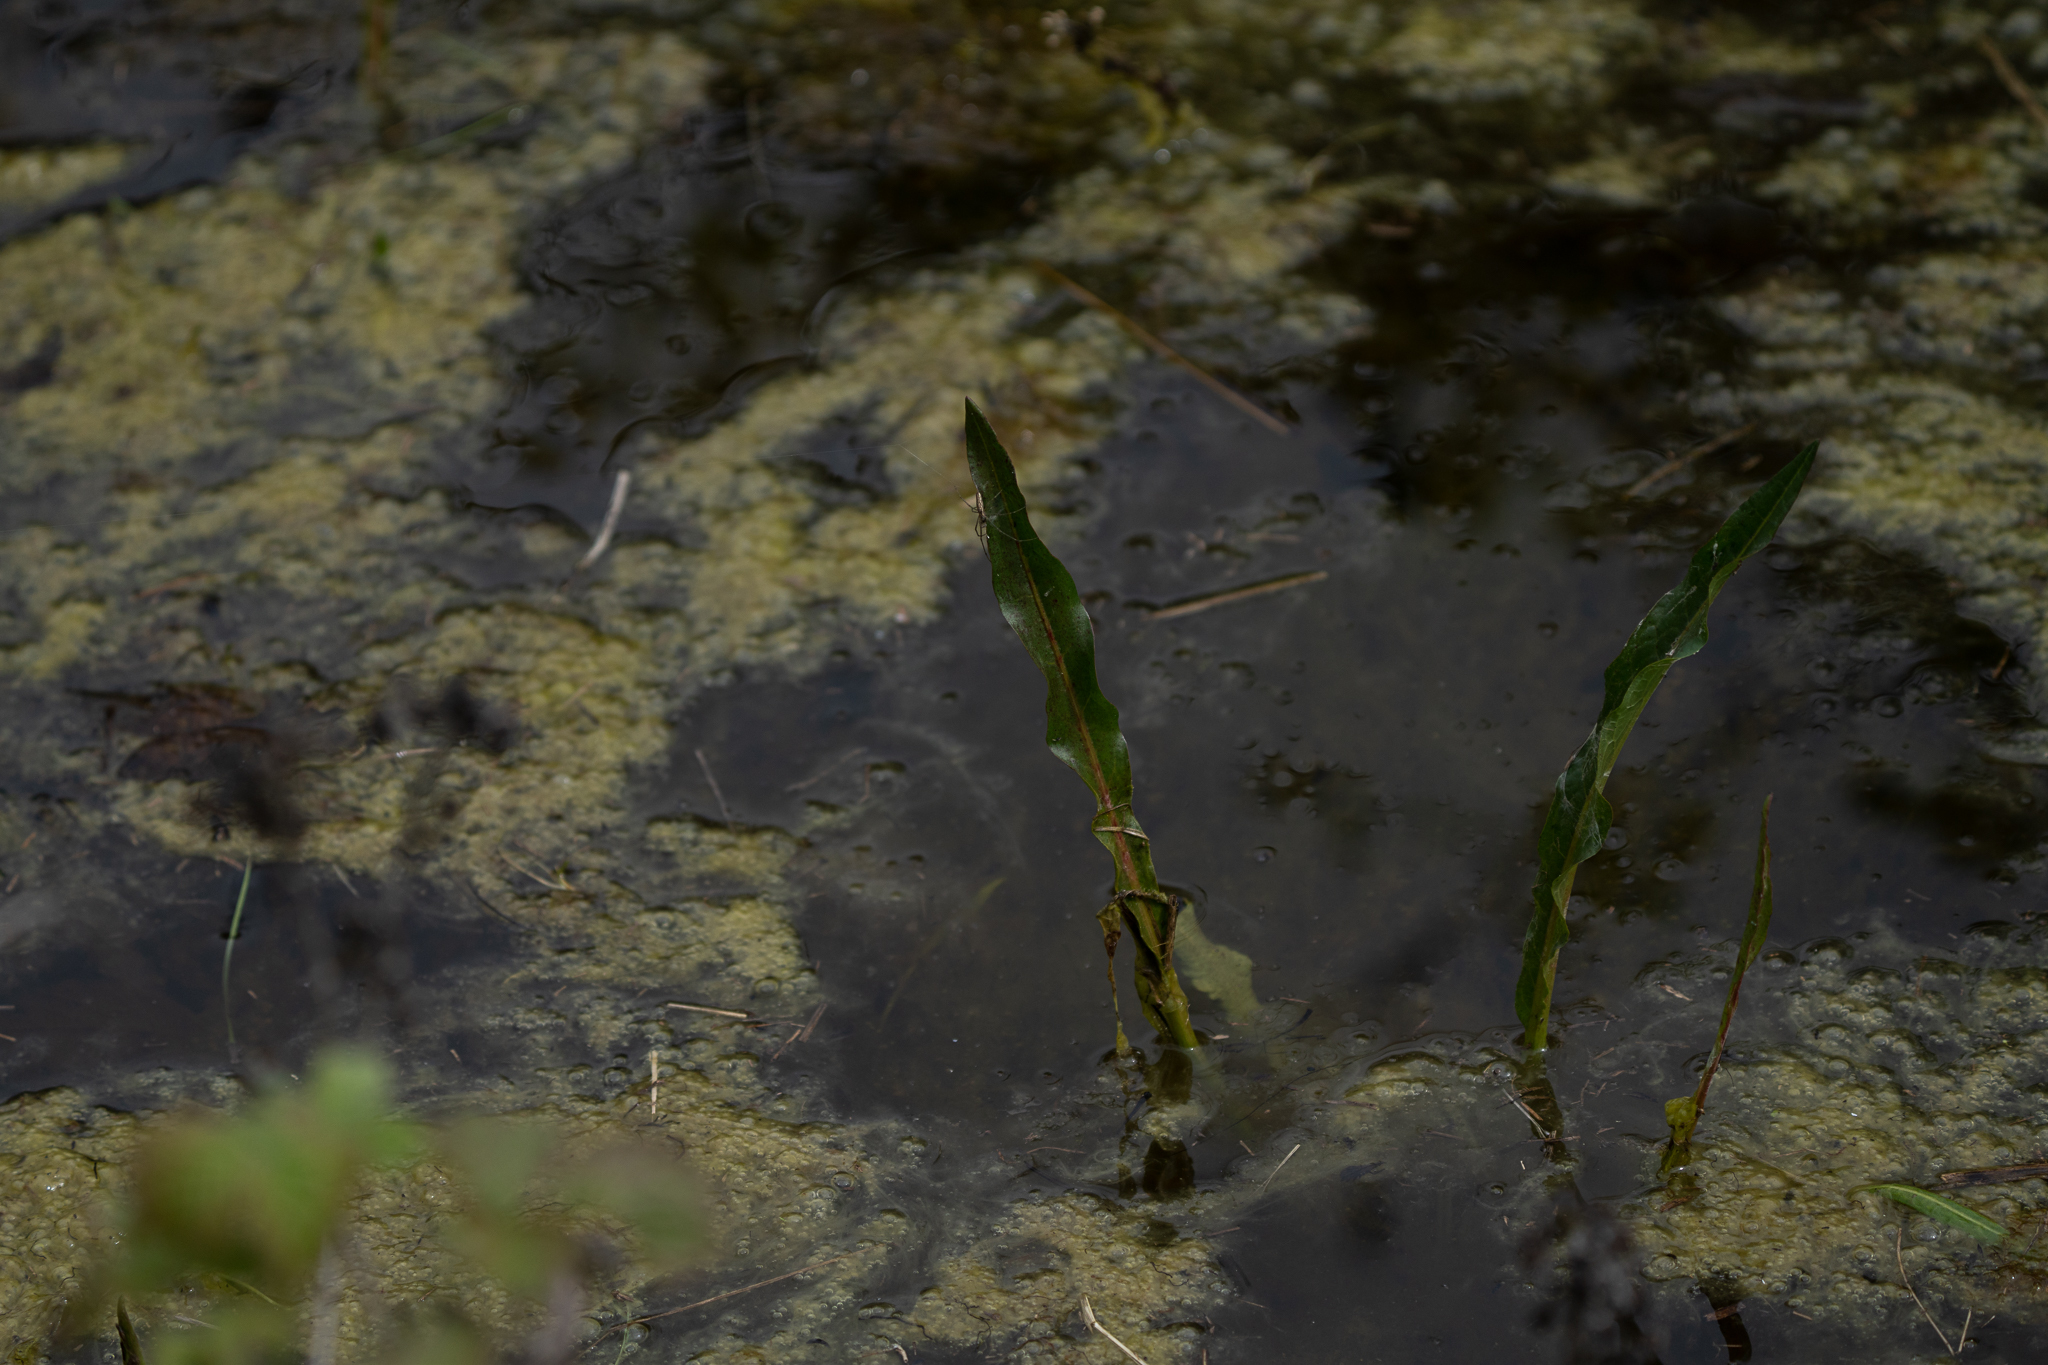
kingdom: Plantae
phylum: Tracheophyta
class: Magnoliopsida
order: Caryophyllales
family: Polygonaceae
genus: Persicaria
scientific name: Persicaria amphibia
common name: Amphibious bistort
